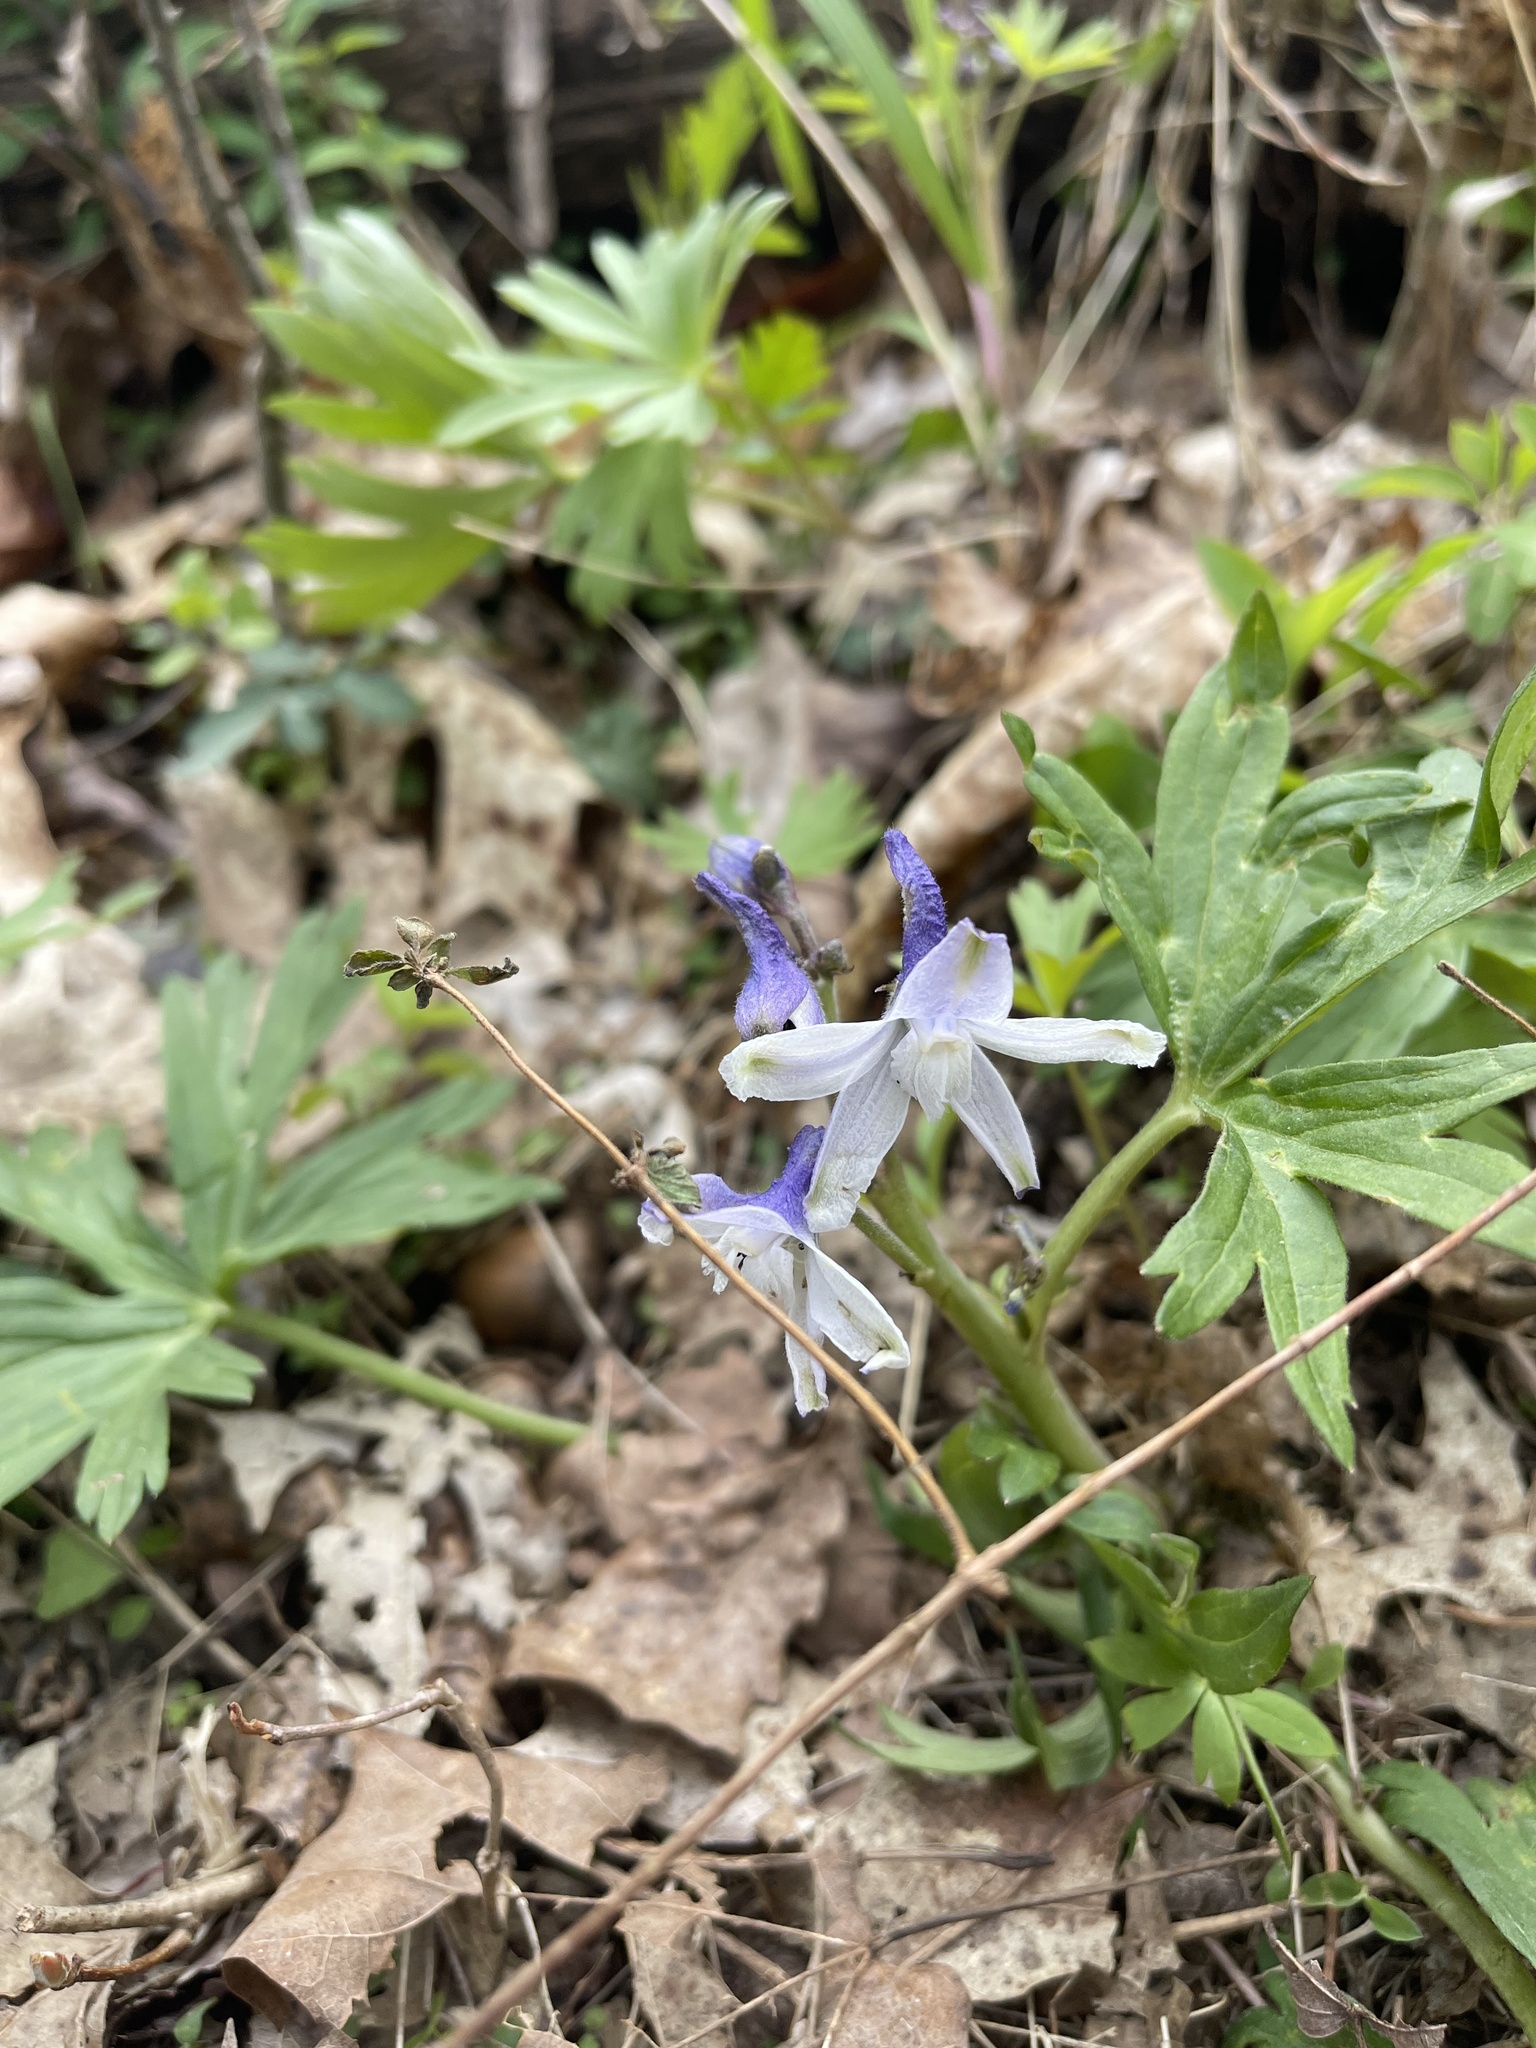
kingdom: Plantae
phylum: Tracheophyta
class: Magnoliopsida
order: Ranunculales
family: Ranunculaceae
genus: Delphinium
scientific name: Delphinium tricorne
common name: Dwarf larkspur
